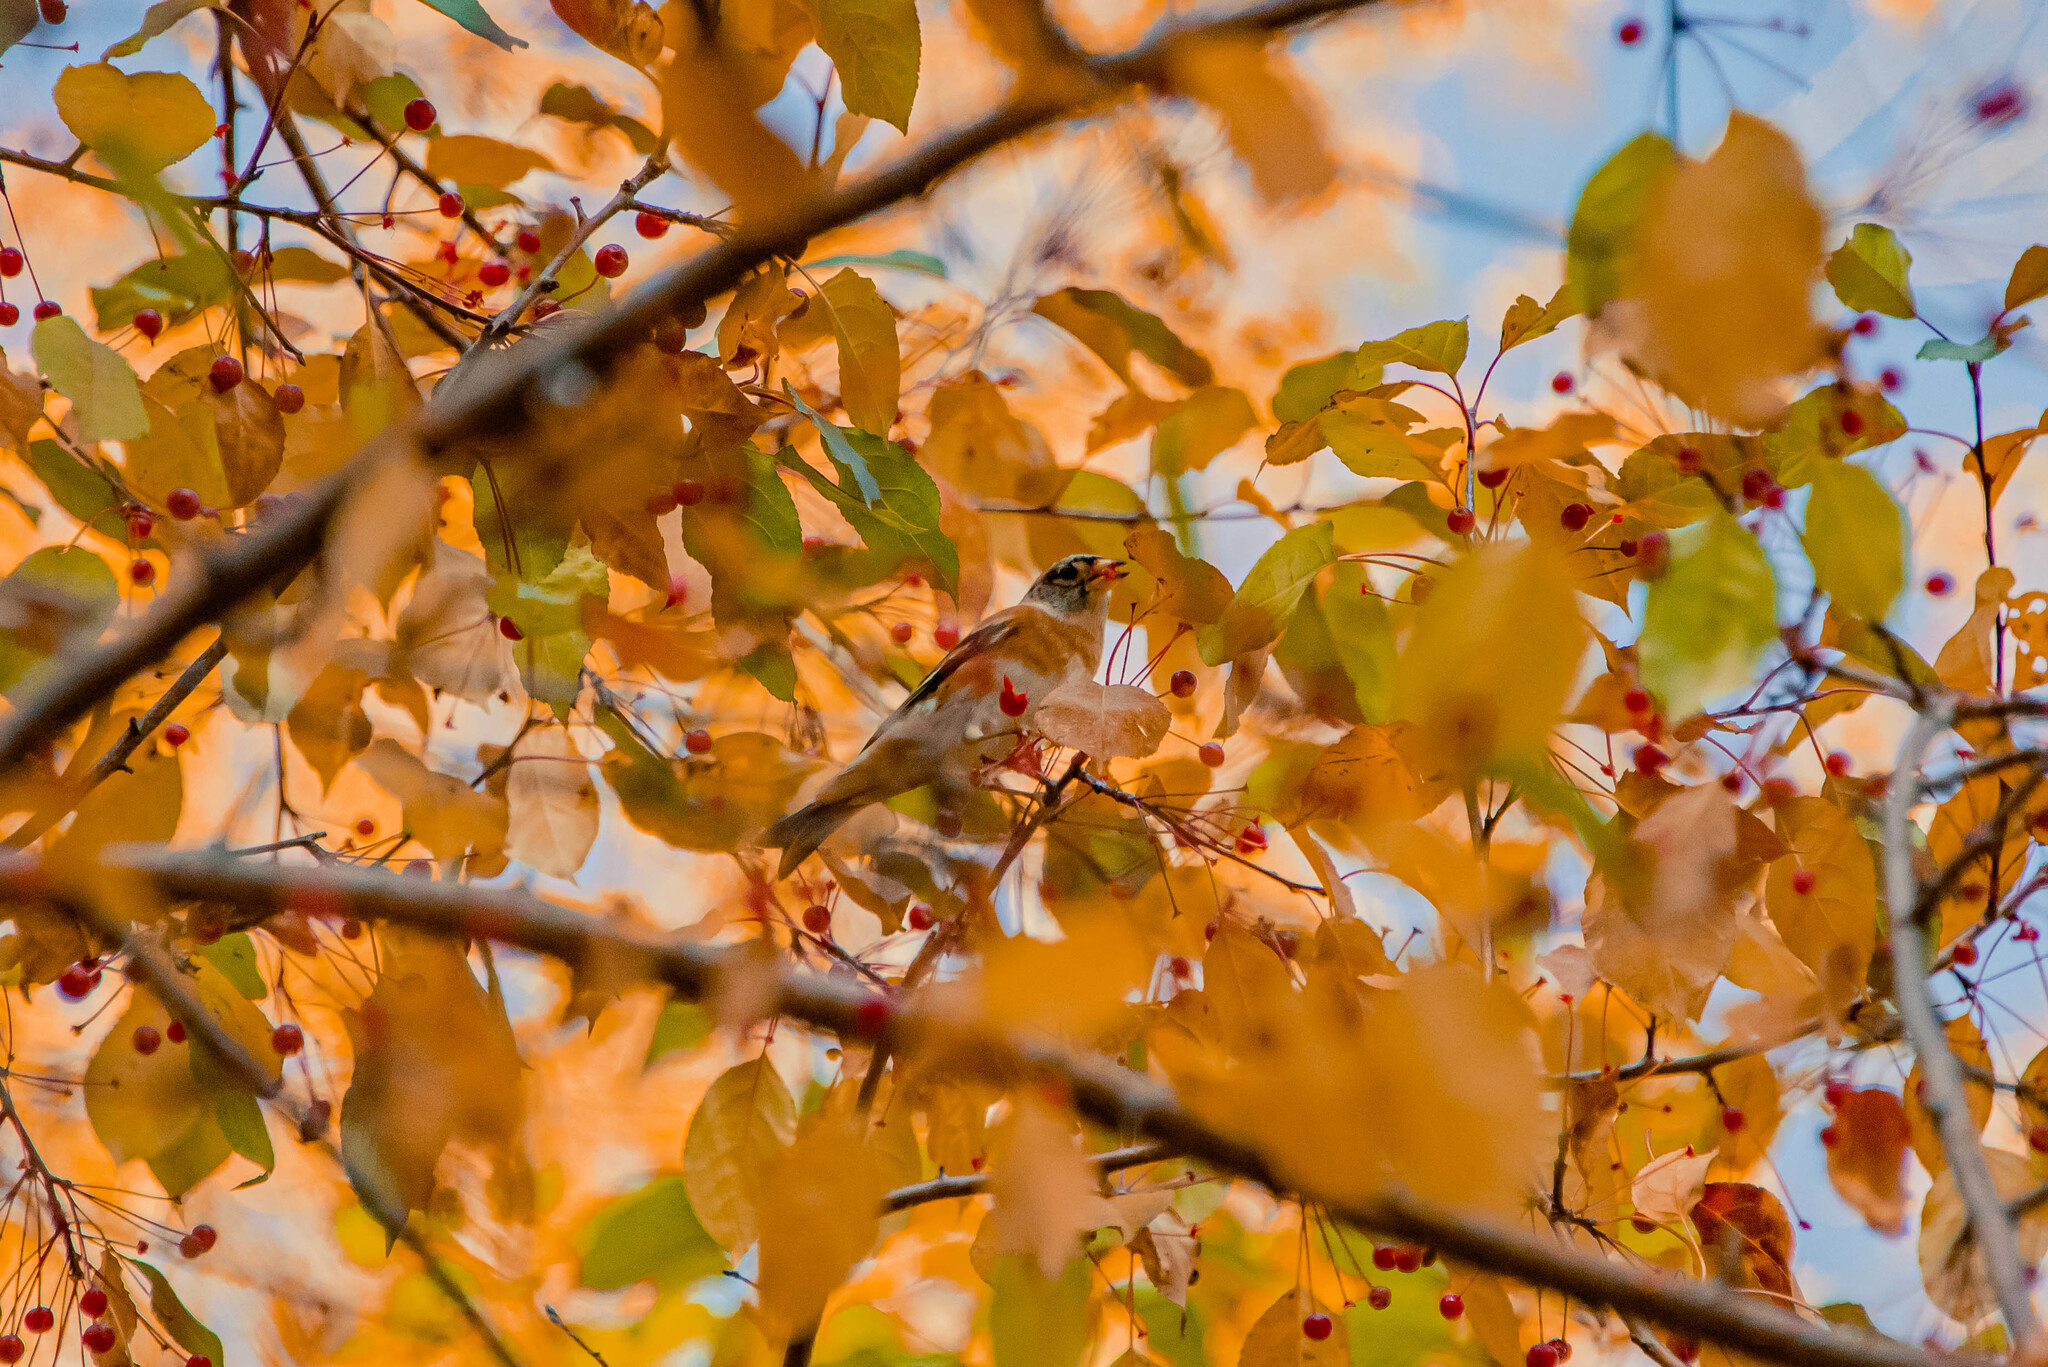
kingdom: Animalia
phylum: Chordata
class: Aves
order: Passeriformes
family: Fringillidae
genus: Fringilla
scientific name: Fringilla montifringilla
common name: Brambling
